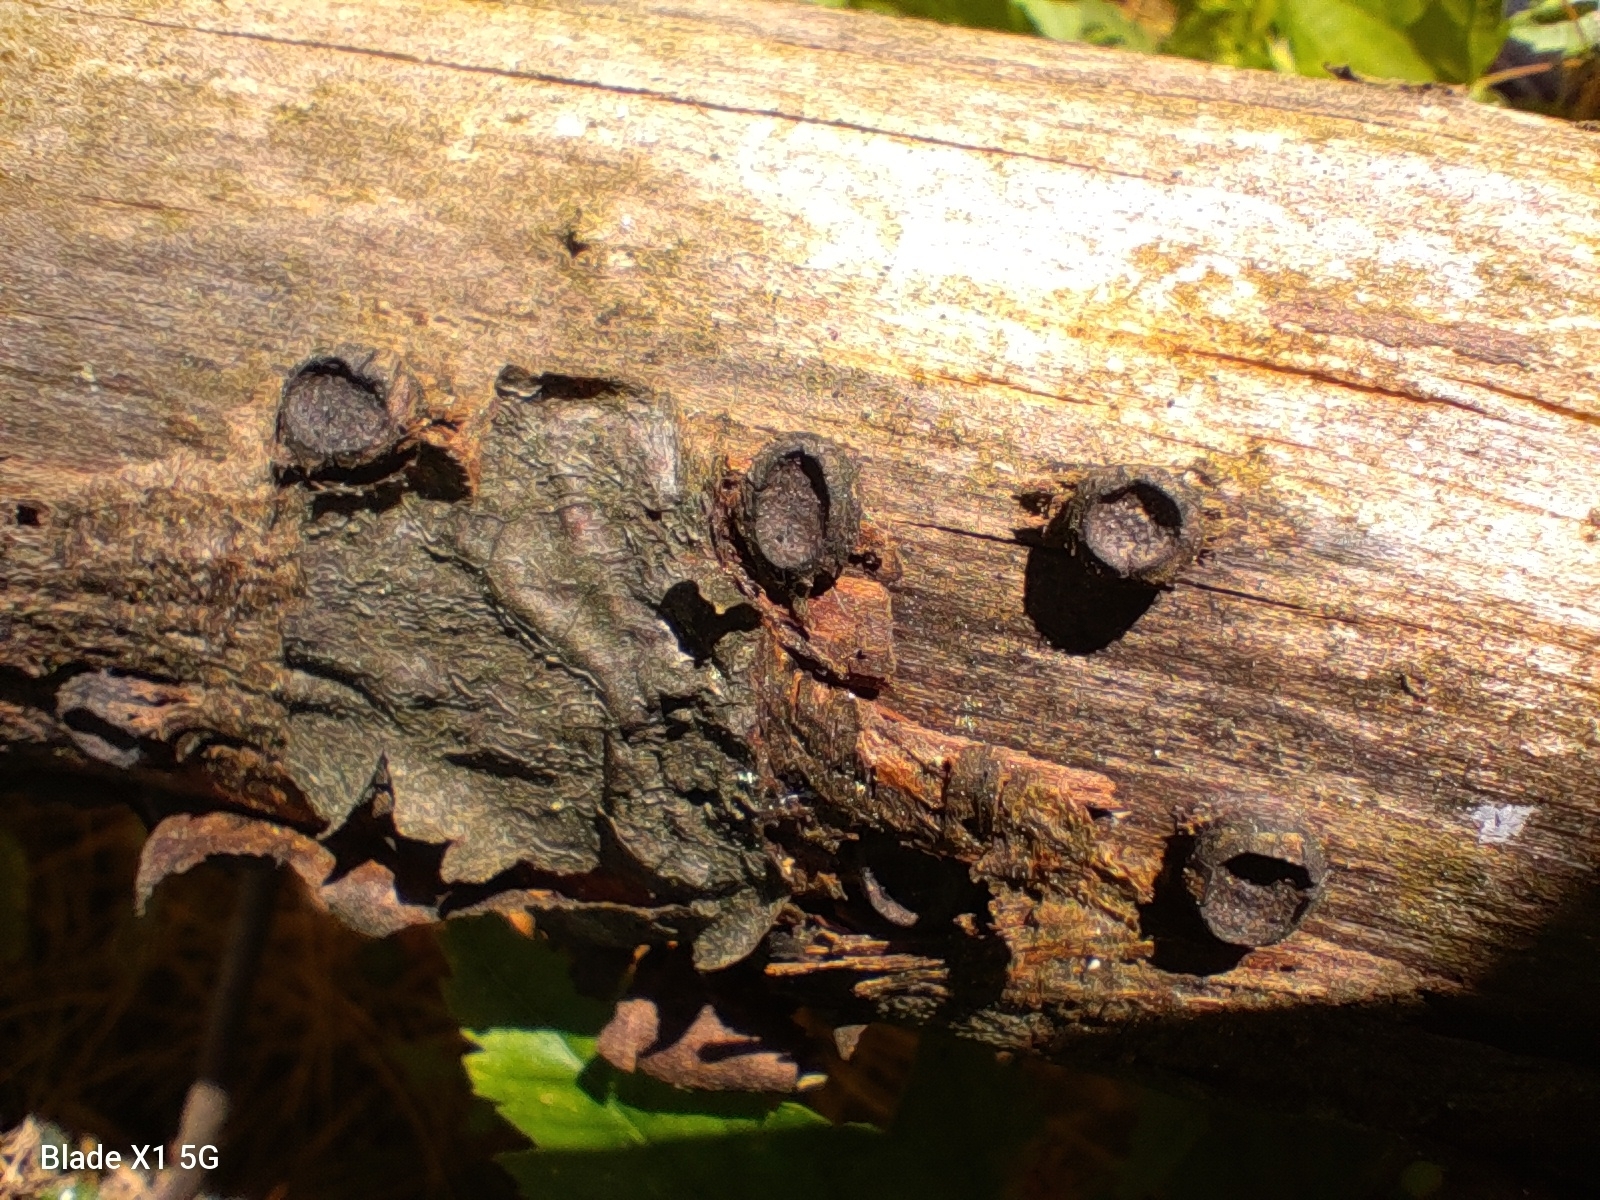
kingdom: Fungi
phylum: Ascomycota
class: Sordariomycetes
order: Xylariales
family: Graphostromataceae
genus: Biscogniauxia
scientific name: Biscogniauxia marginata
